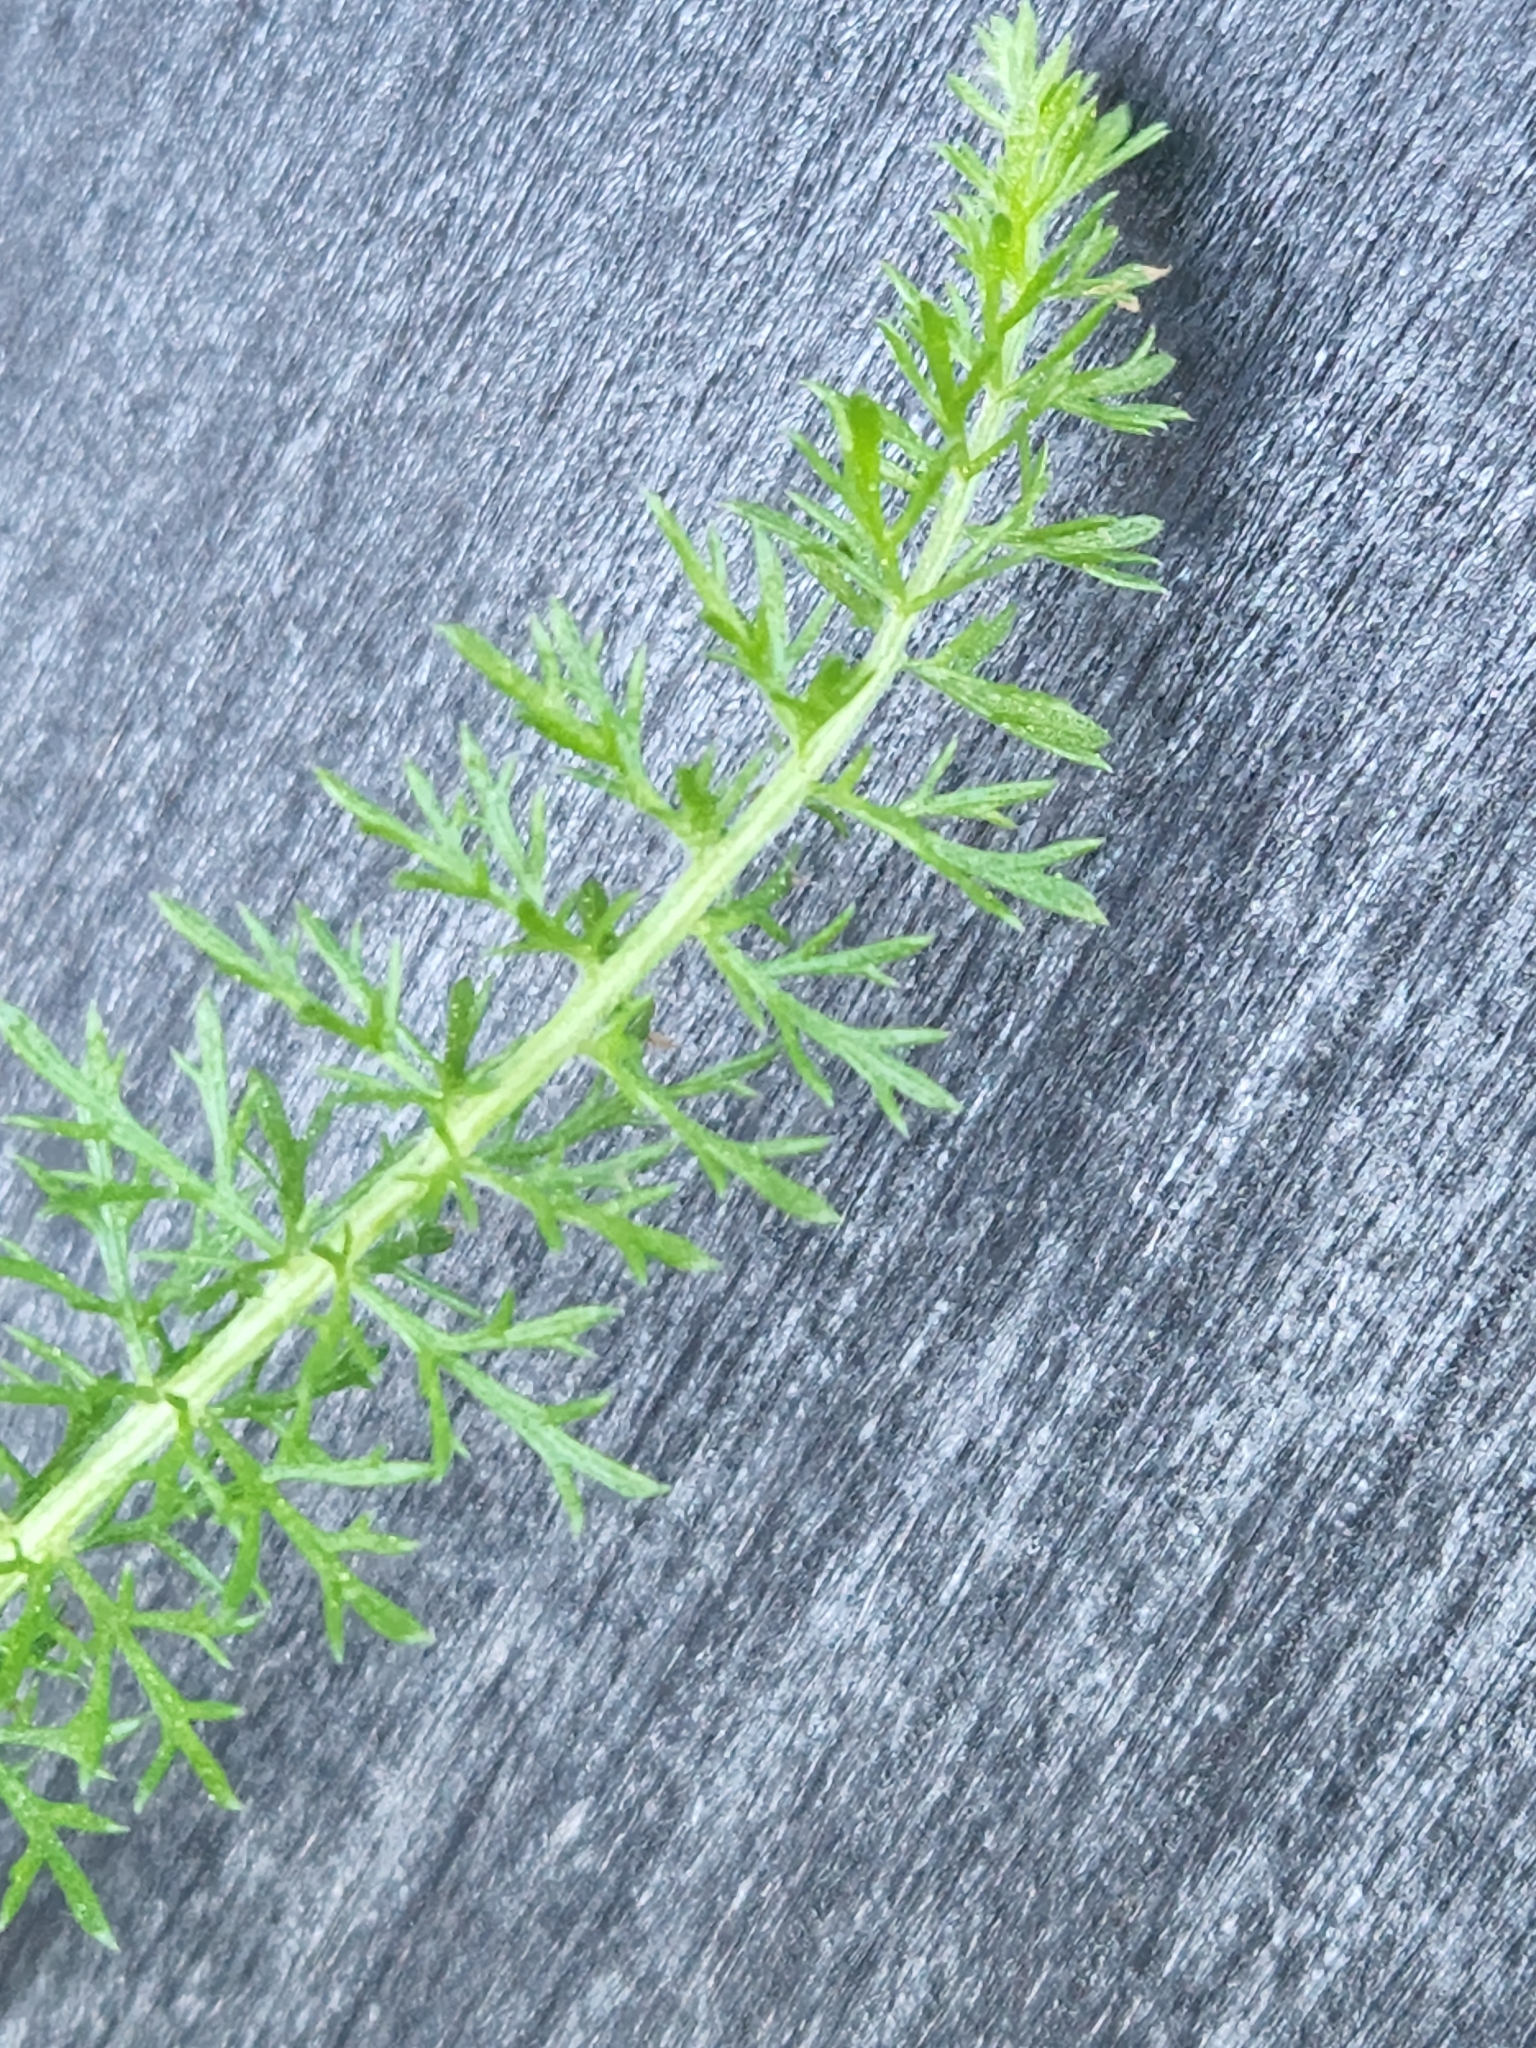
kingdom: Plantae
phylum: Tracheophyta
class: Magnoliopsida
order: Asterales
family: Asteraceae
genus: Achillea
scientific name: Achillea millefolium
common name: Yarrow
